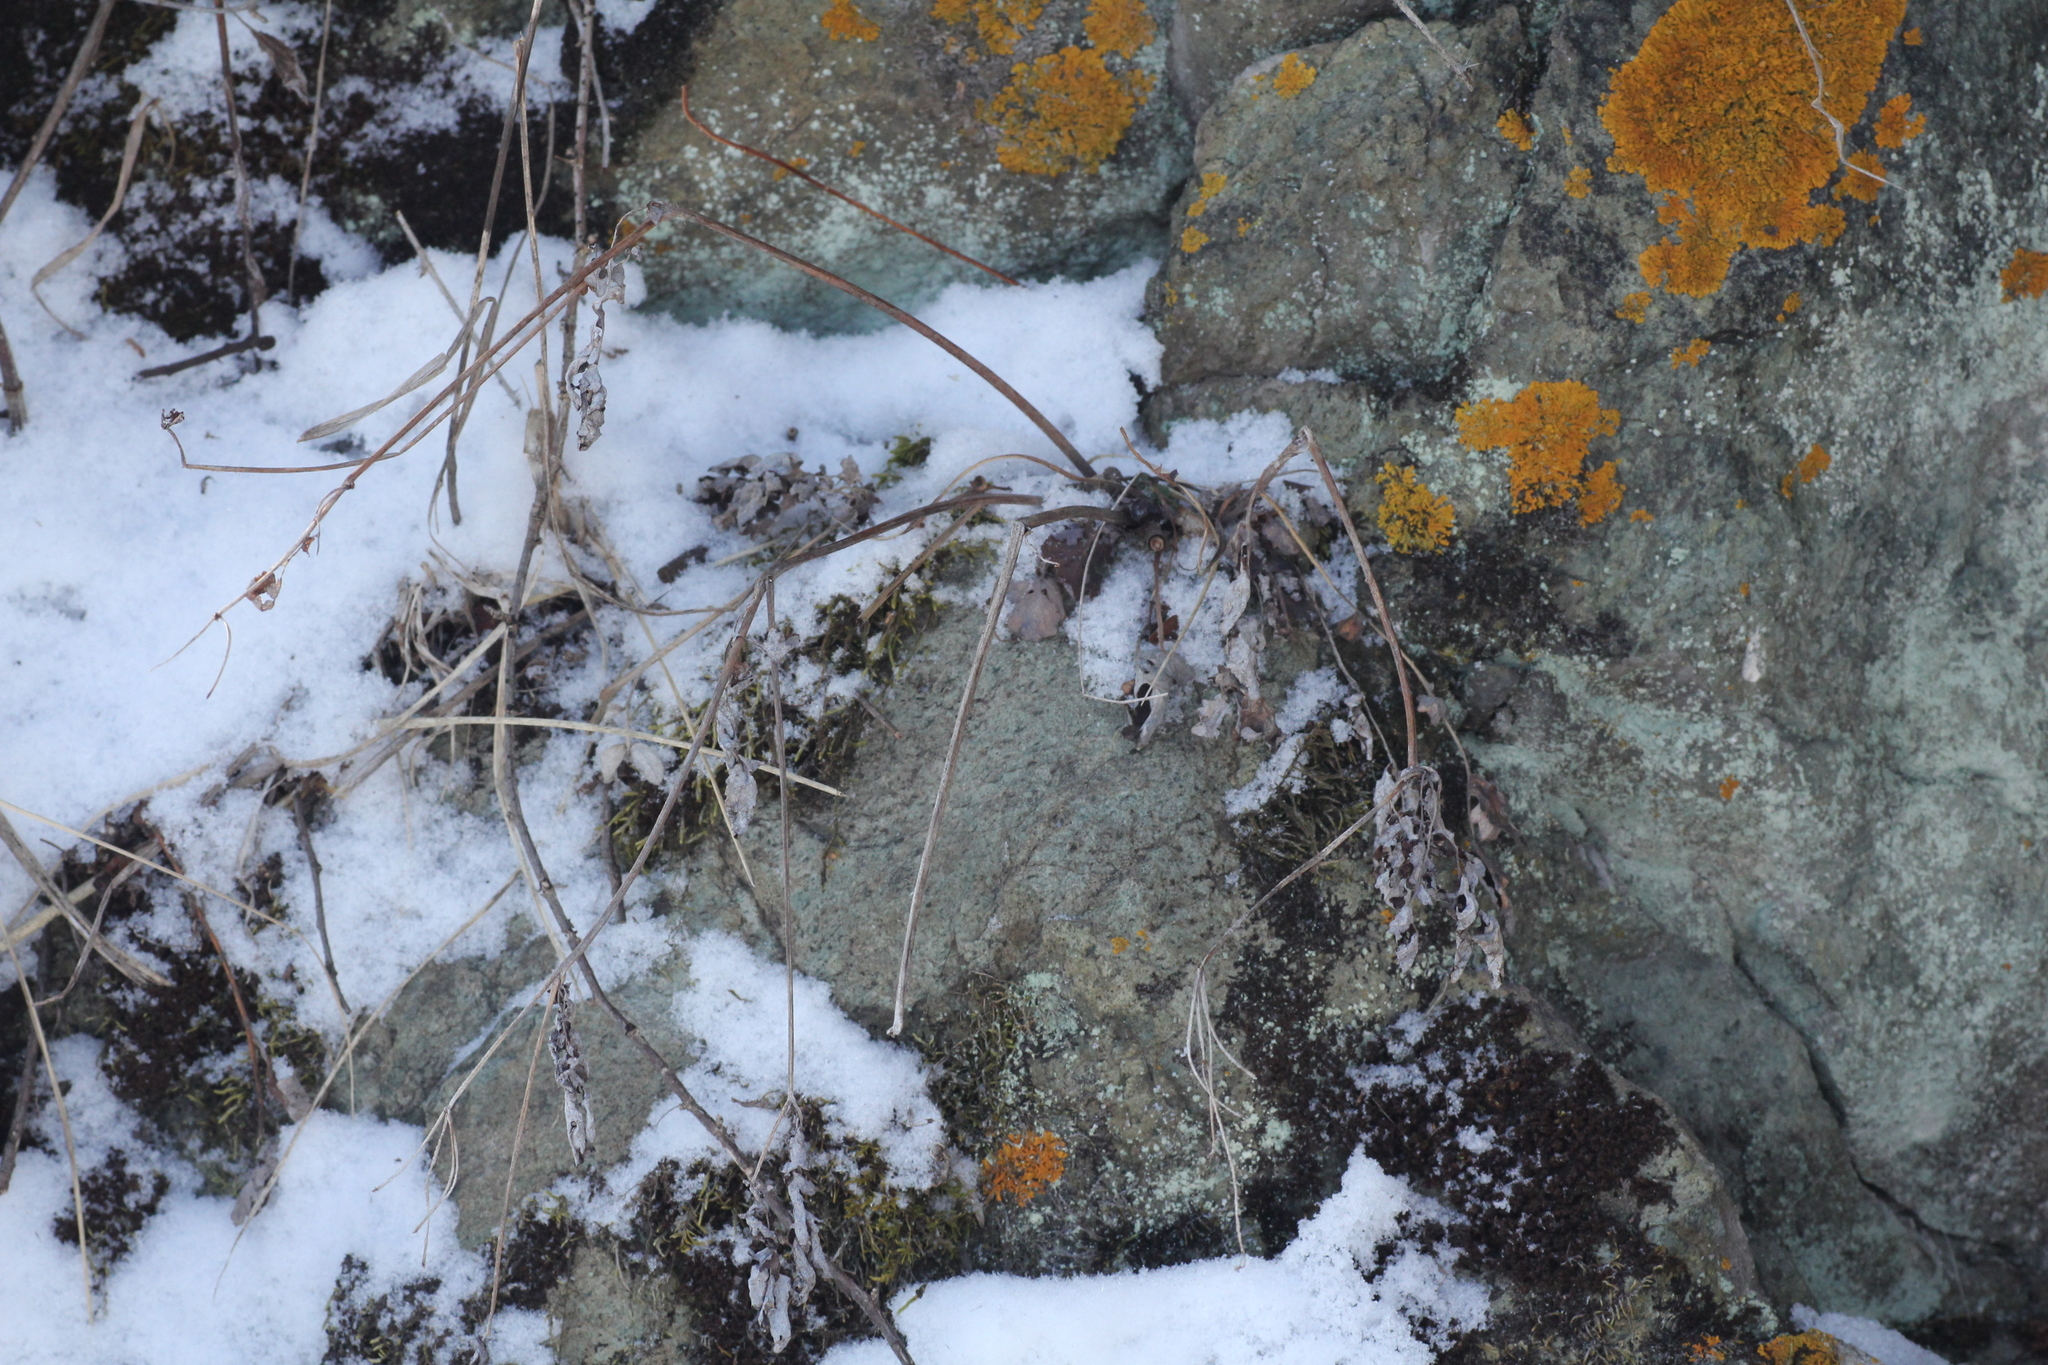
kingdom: Plantae
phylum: Tracheophyta
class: Magnoliopsida
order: Ranunculales
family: Papaveraceae
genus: Chelidonium
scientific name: Chelidonium majus
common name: Greater celandine
